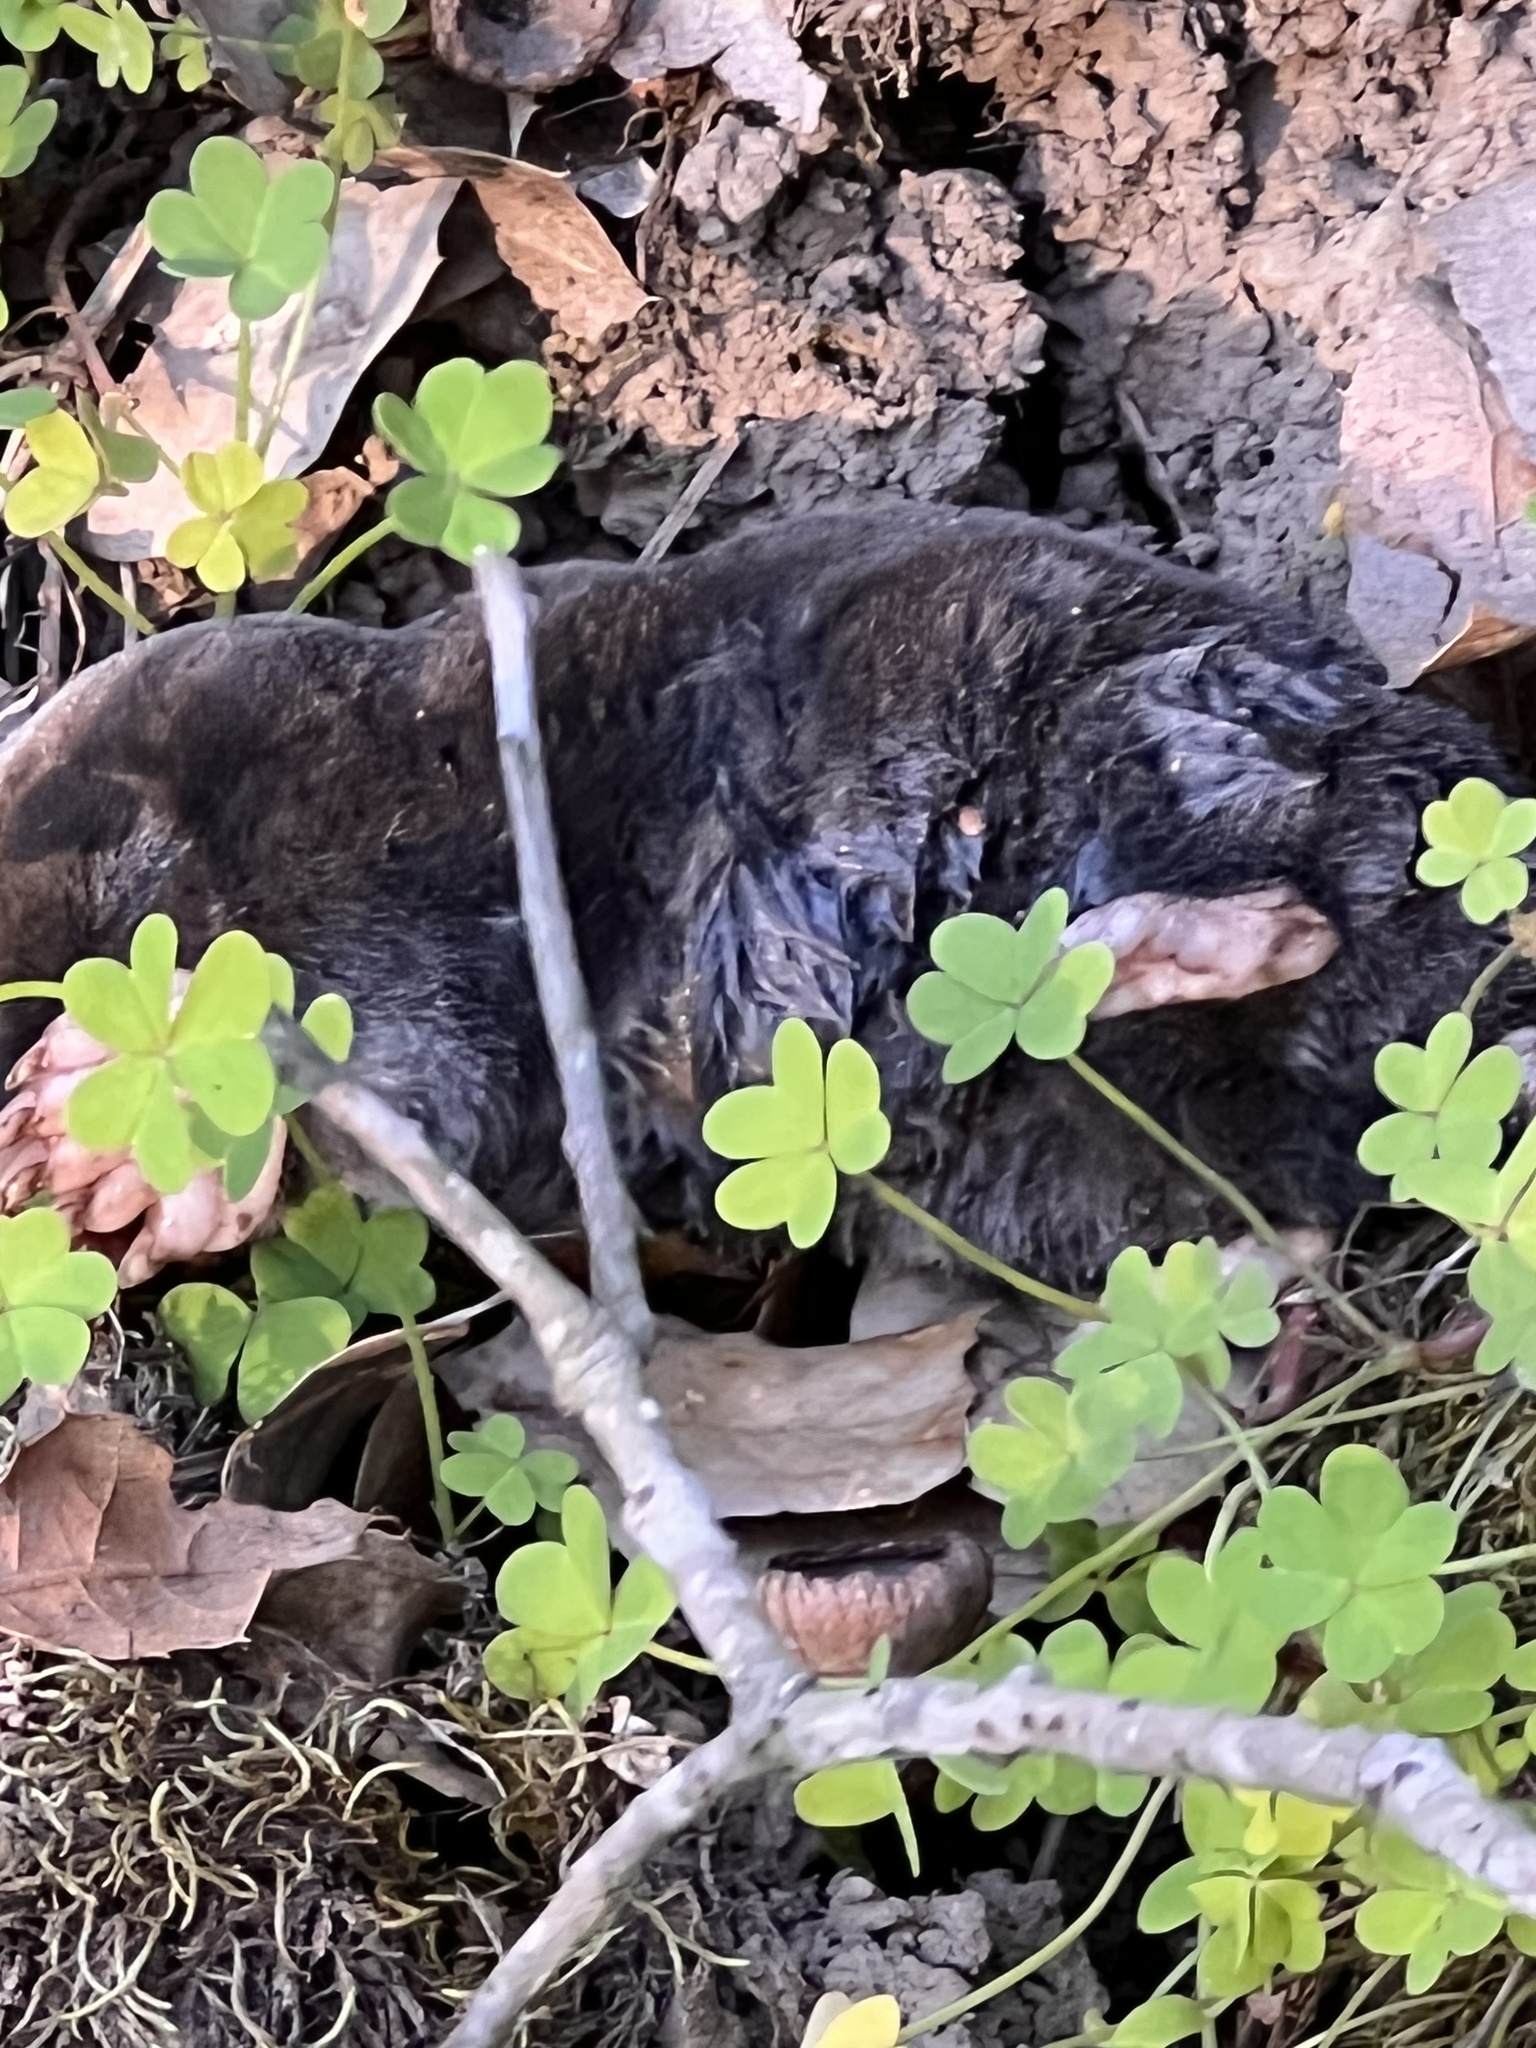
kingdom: Animalia
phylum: Chordata
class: Mammalia
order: Soricomorpha
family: Talpidae
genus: Scapanus
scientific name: Scapanus latimanus
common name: Broad-footed mole
